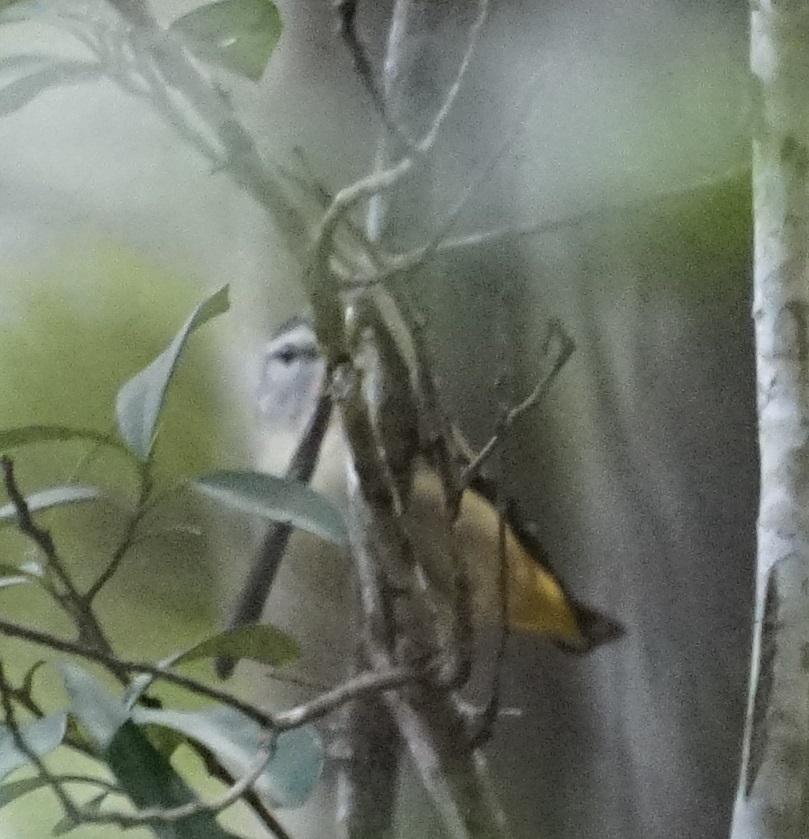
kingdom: Animalia
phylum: Chordata
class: Aves
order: Passeriformes
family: Pardalotidae
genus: Pardalotus
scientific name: Pardalotus punctatus
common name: Spotted pardalote
